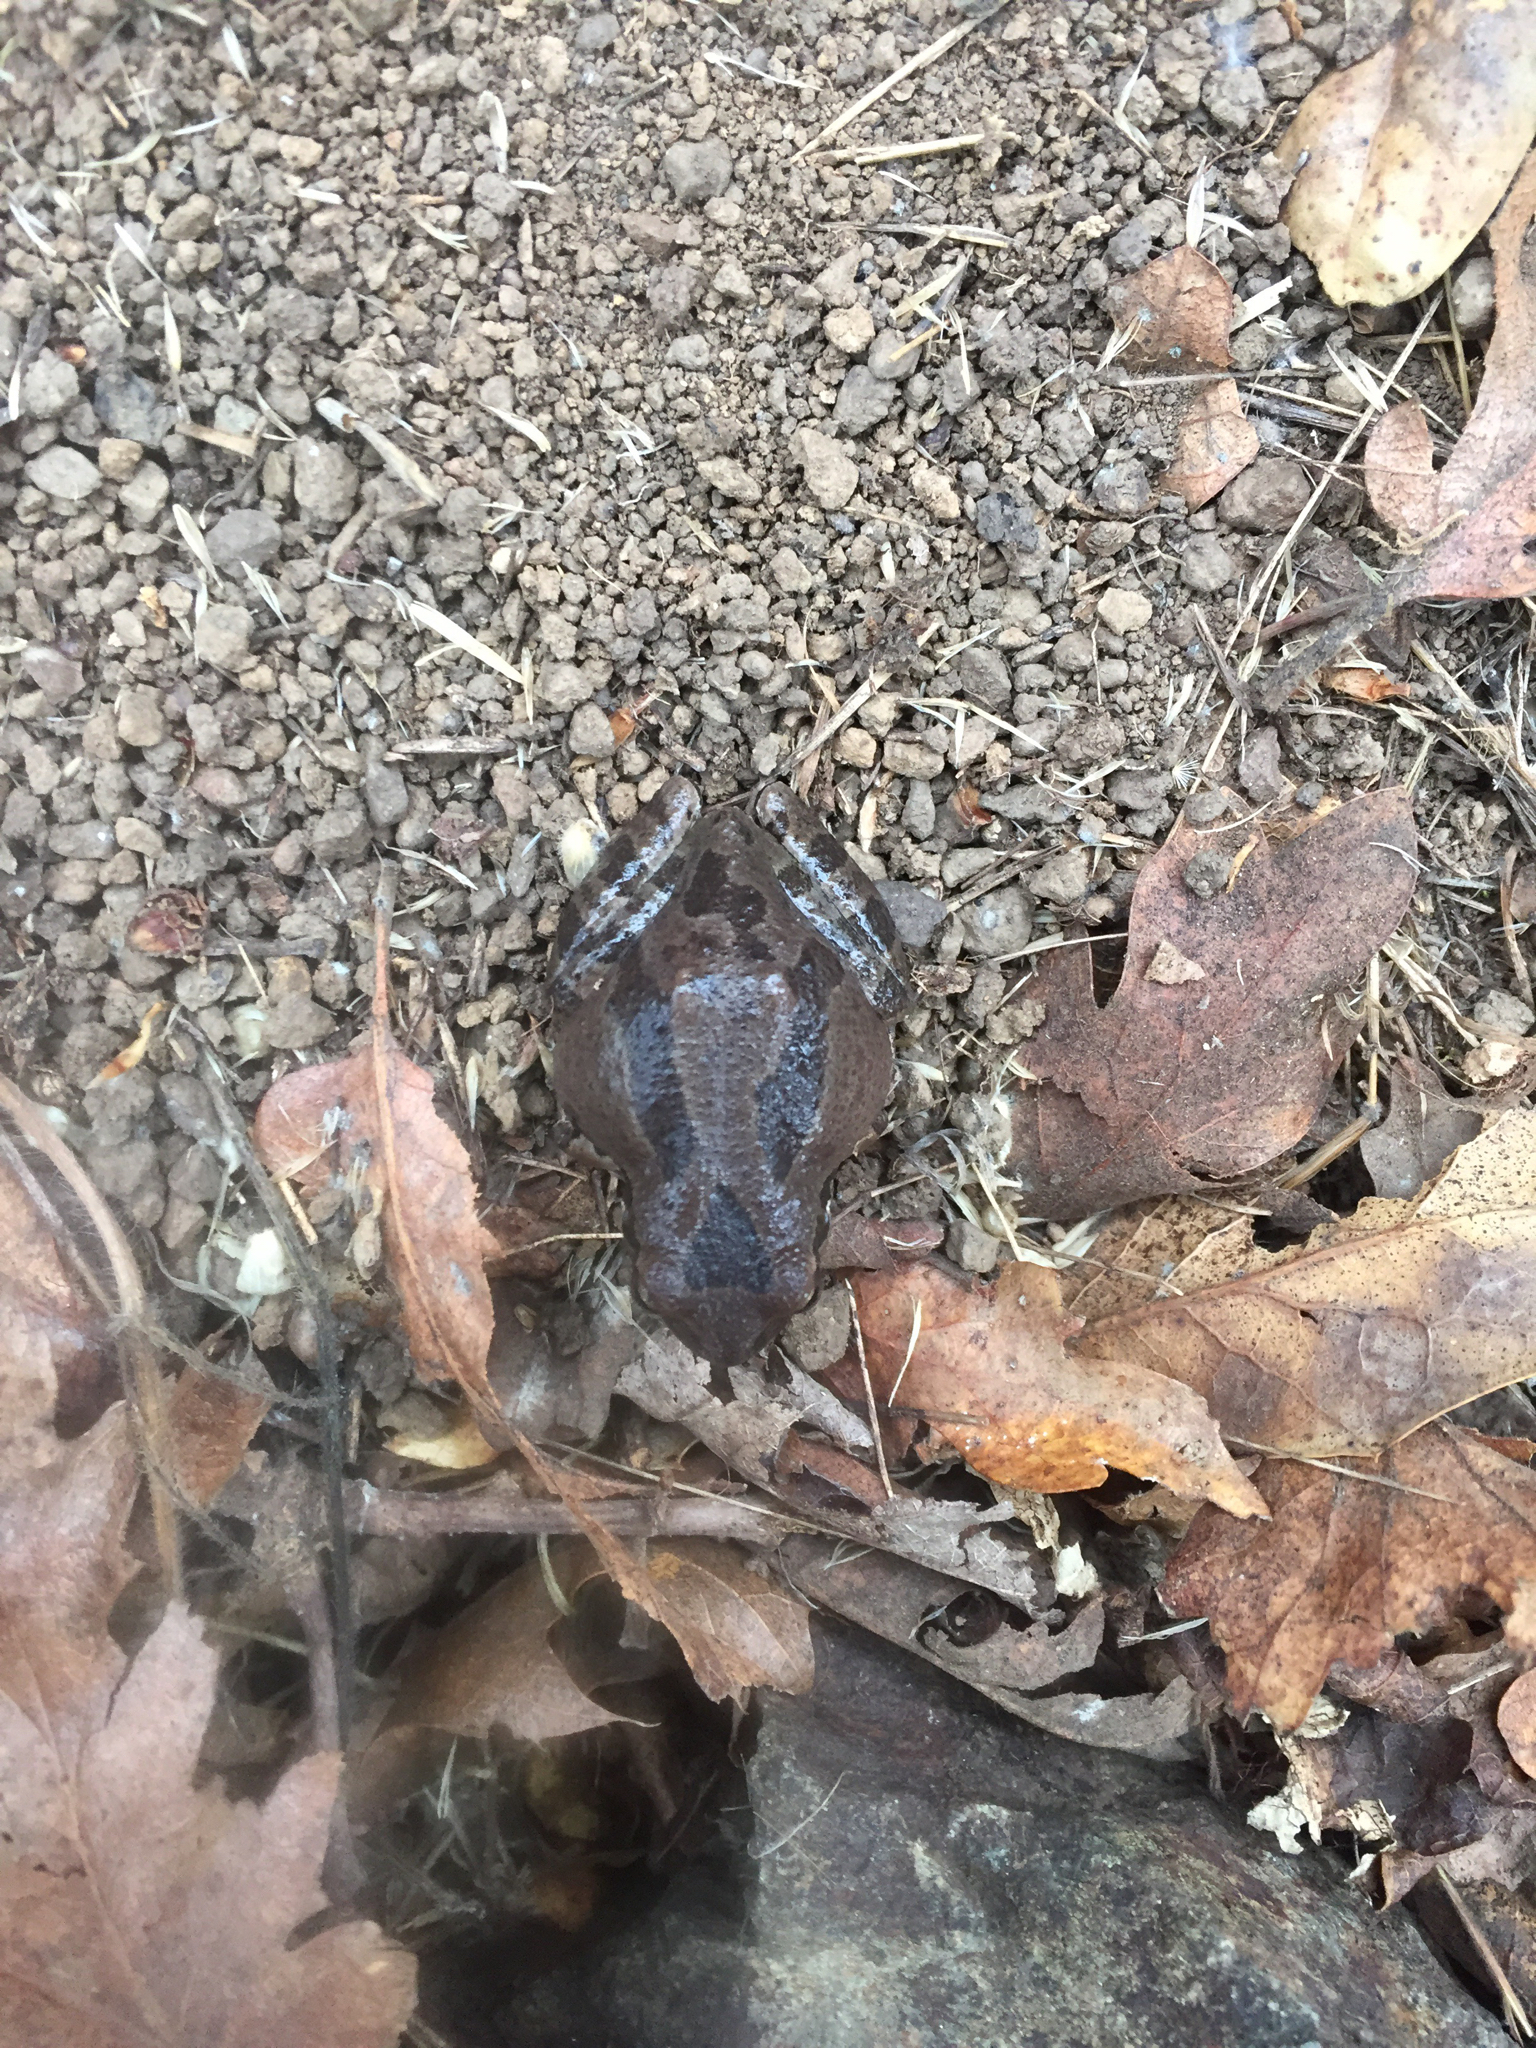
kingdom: Animalia
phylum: Chordata
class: Amphibia
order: Anura
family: Hylidae
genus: Pseudacris
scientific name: Pseudacris regilla
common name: Pacific chorus frog
